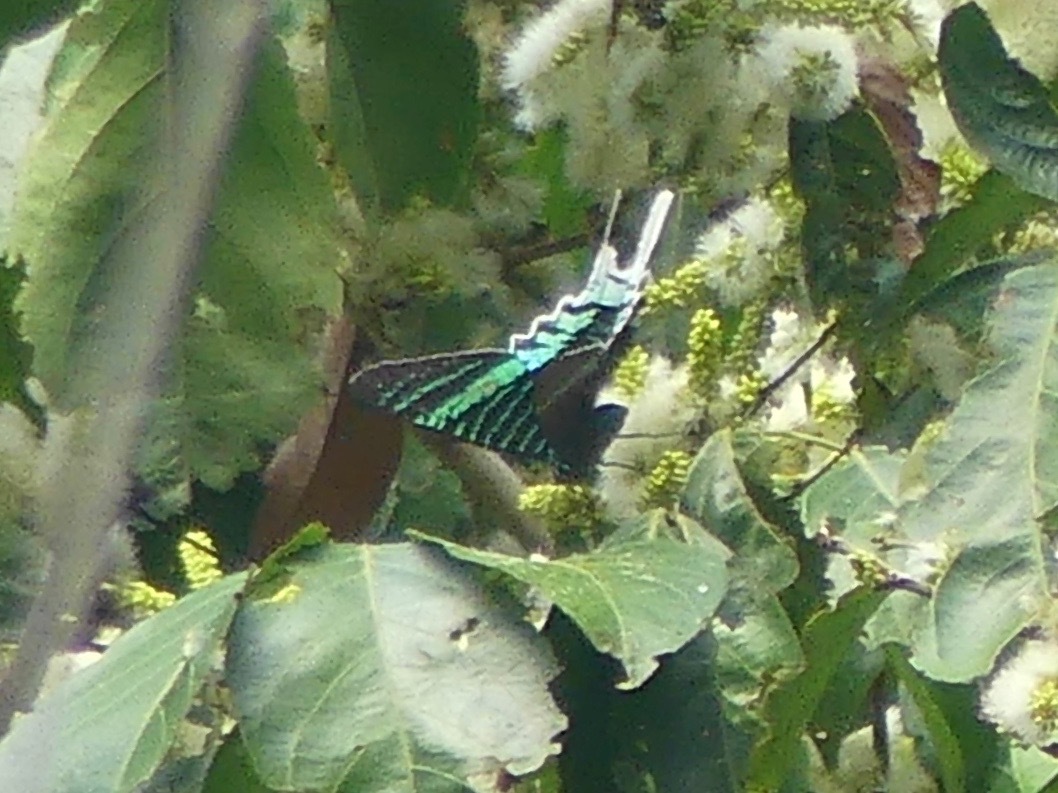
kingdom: Animalia
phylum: Arthropoda
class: Insecta
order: Lepidoptera
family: Uraniidae
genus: Urania
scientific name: Urania leilus
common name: Peacock moth
